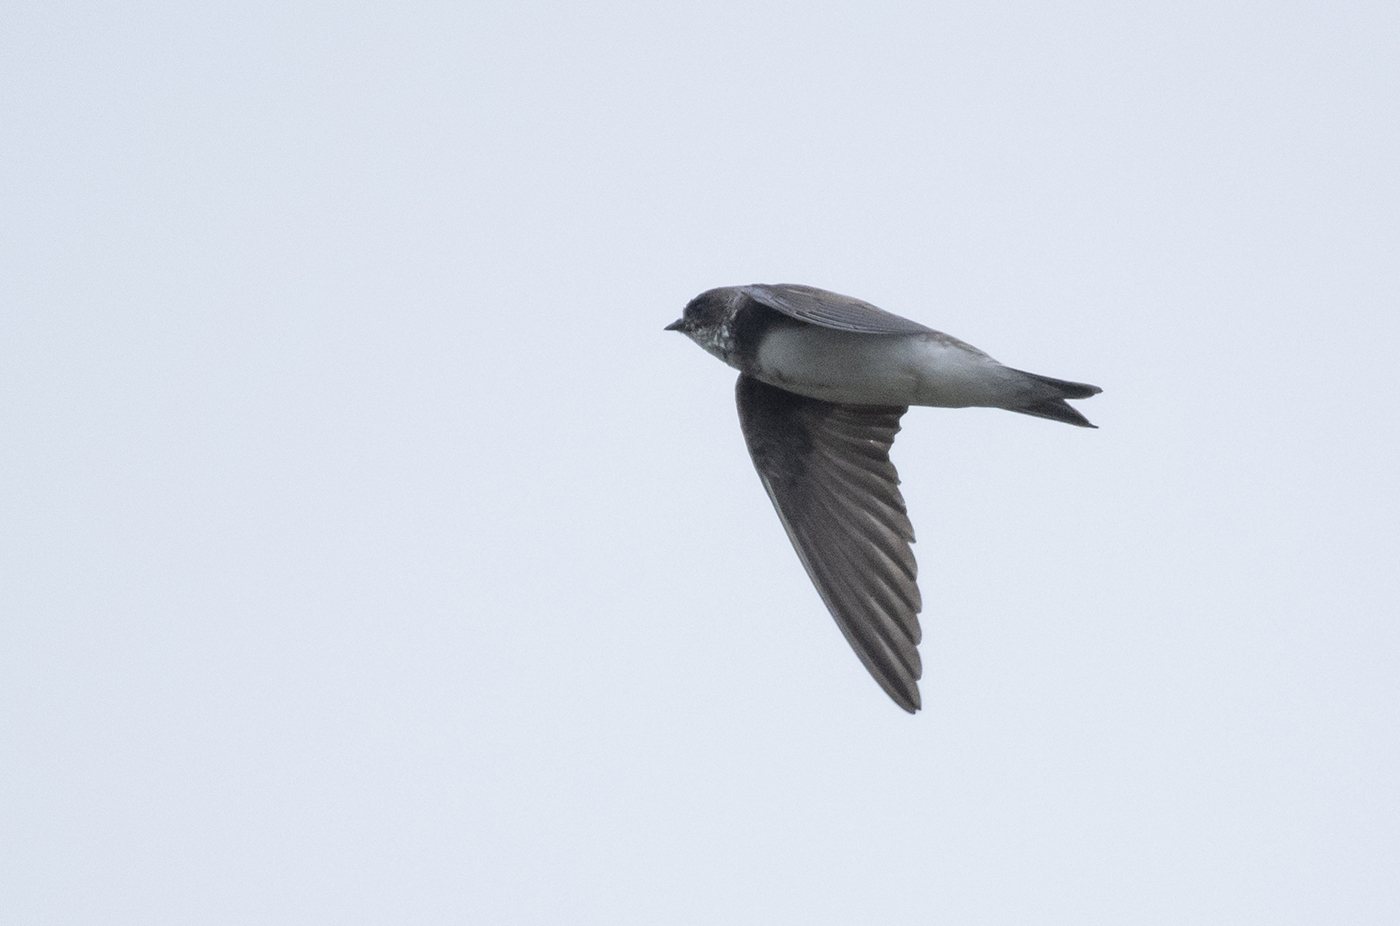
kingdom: Animalia
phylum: Chordata
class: Aves
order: Passeriformes
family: Hirundinidae
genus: Riparia
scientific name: Riparia riparia
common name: Sand martin
